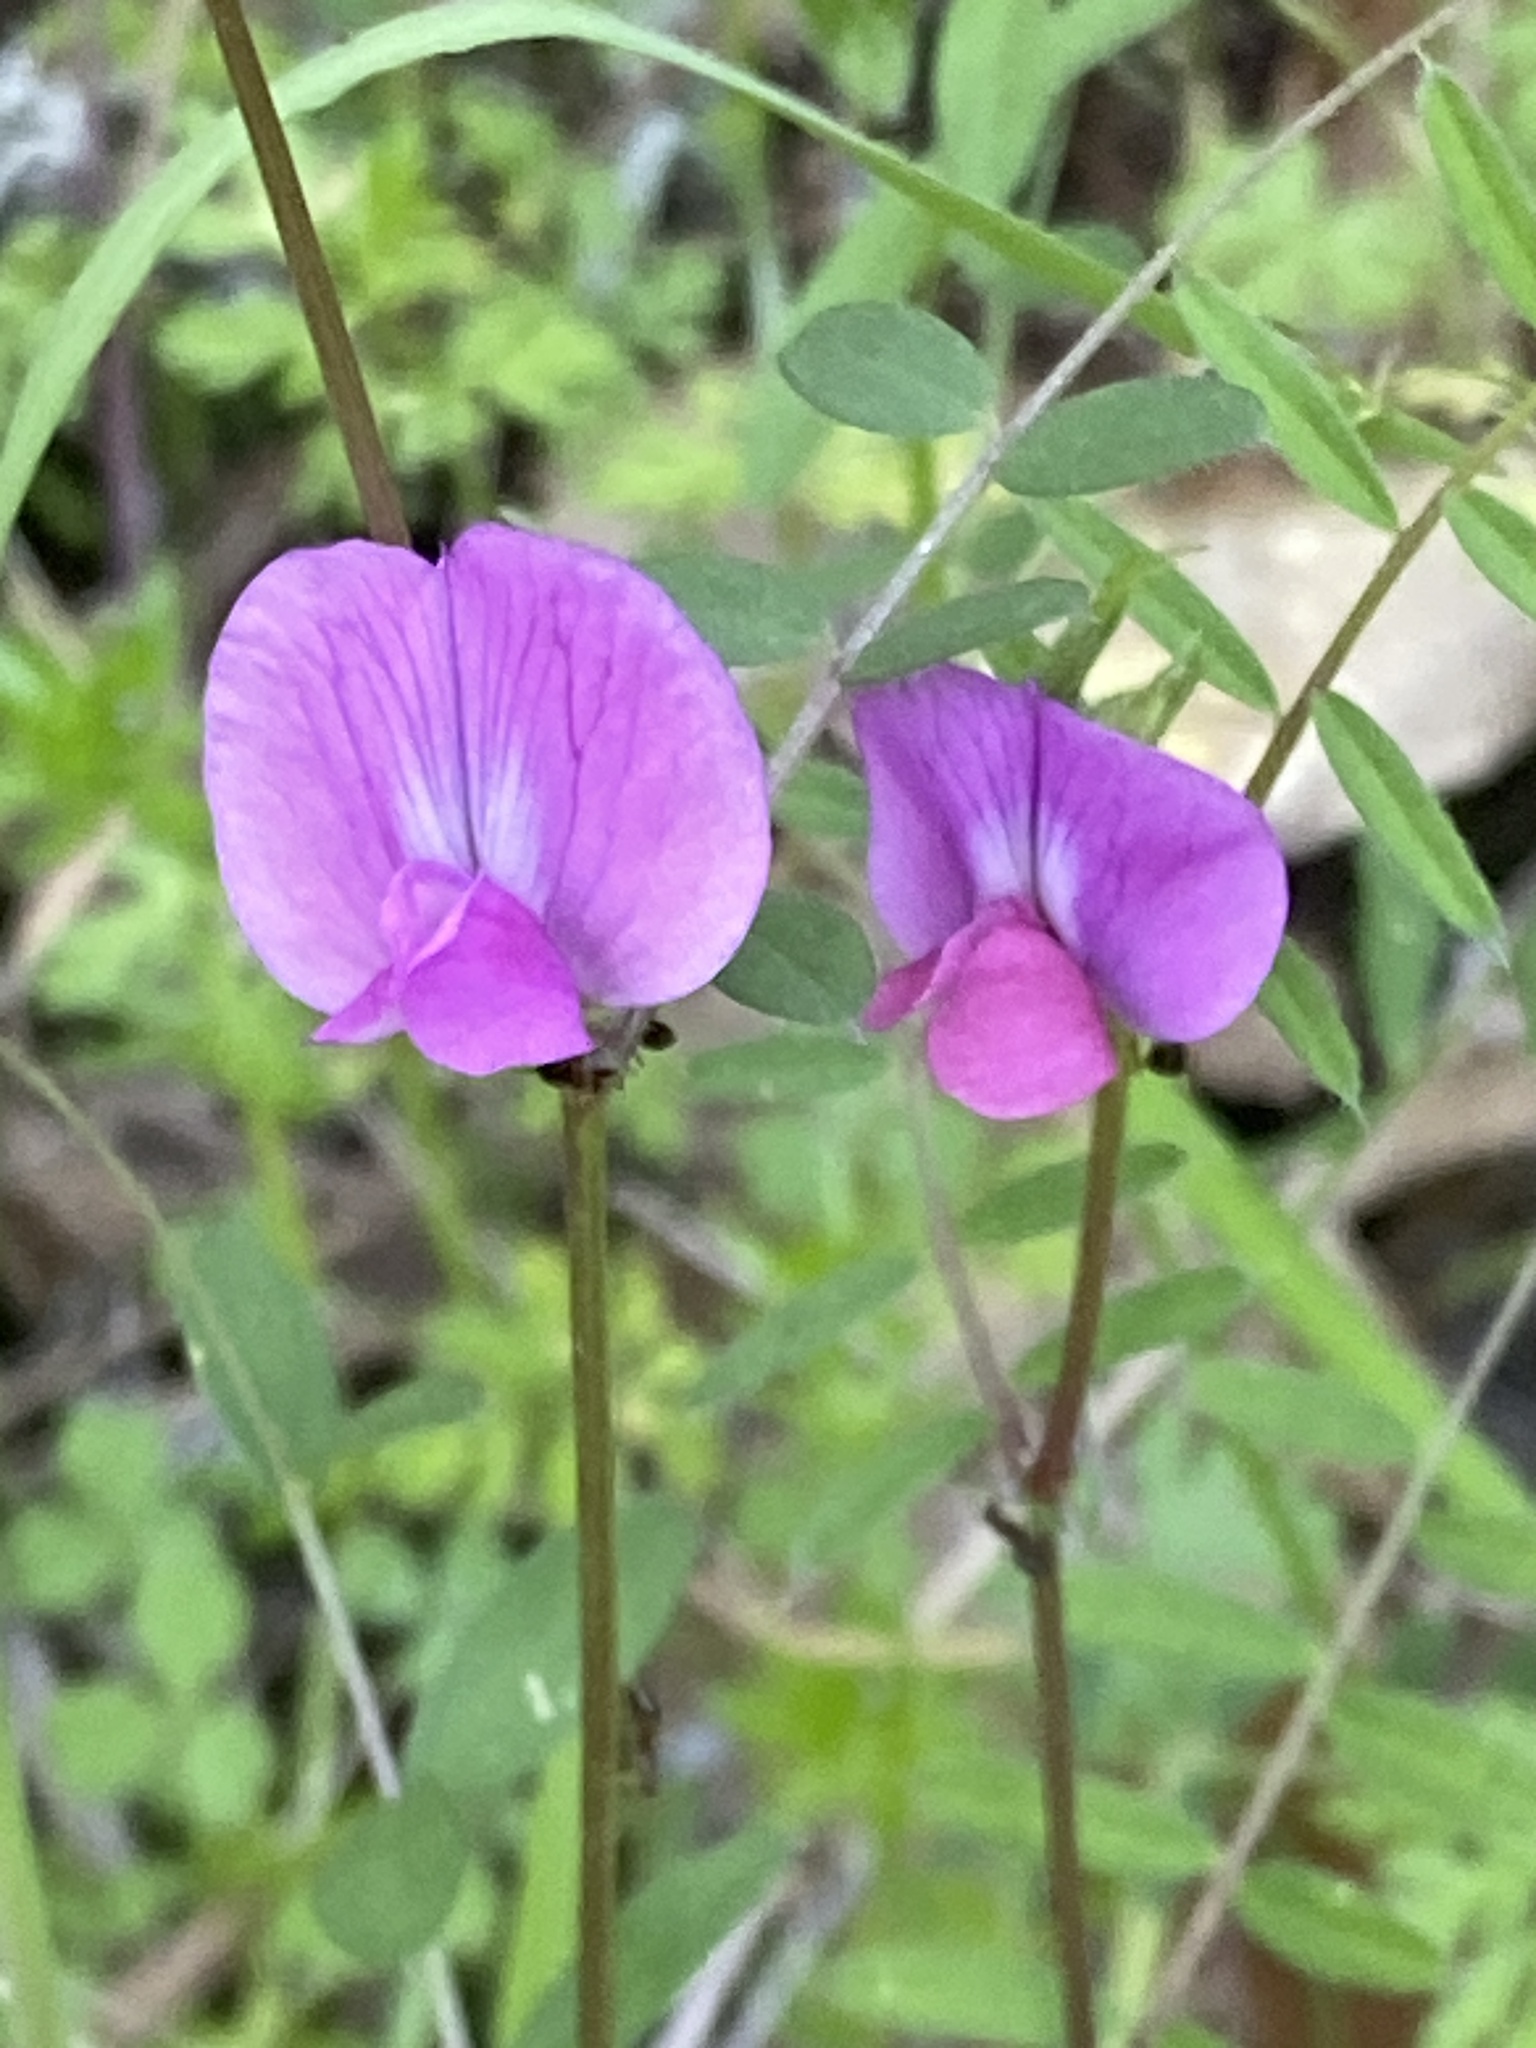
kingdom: Plantae
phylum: Tracheophyta
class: Magnoliopsida
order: Fabales
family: Fabaceae
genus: Vicia
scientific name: Vicia sativa
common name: Garden vetch
